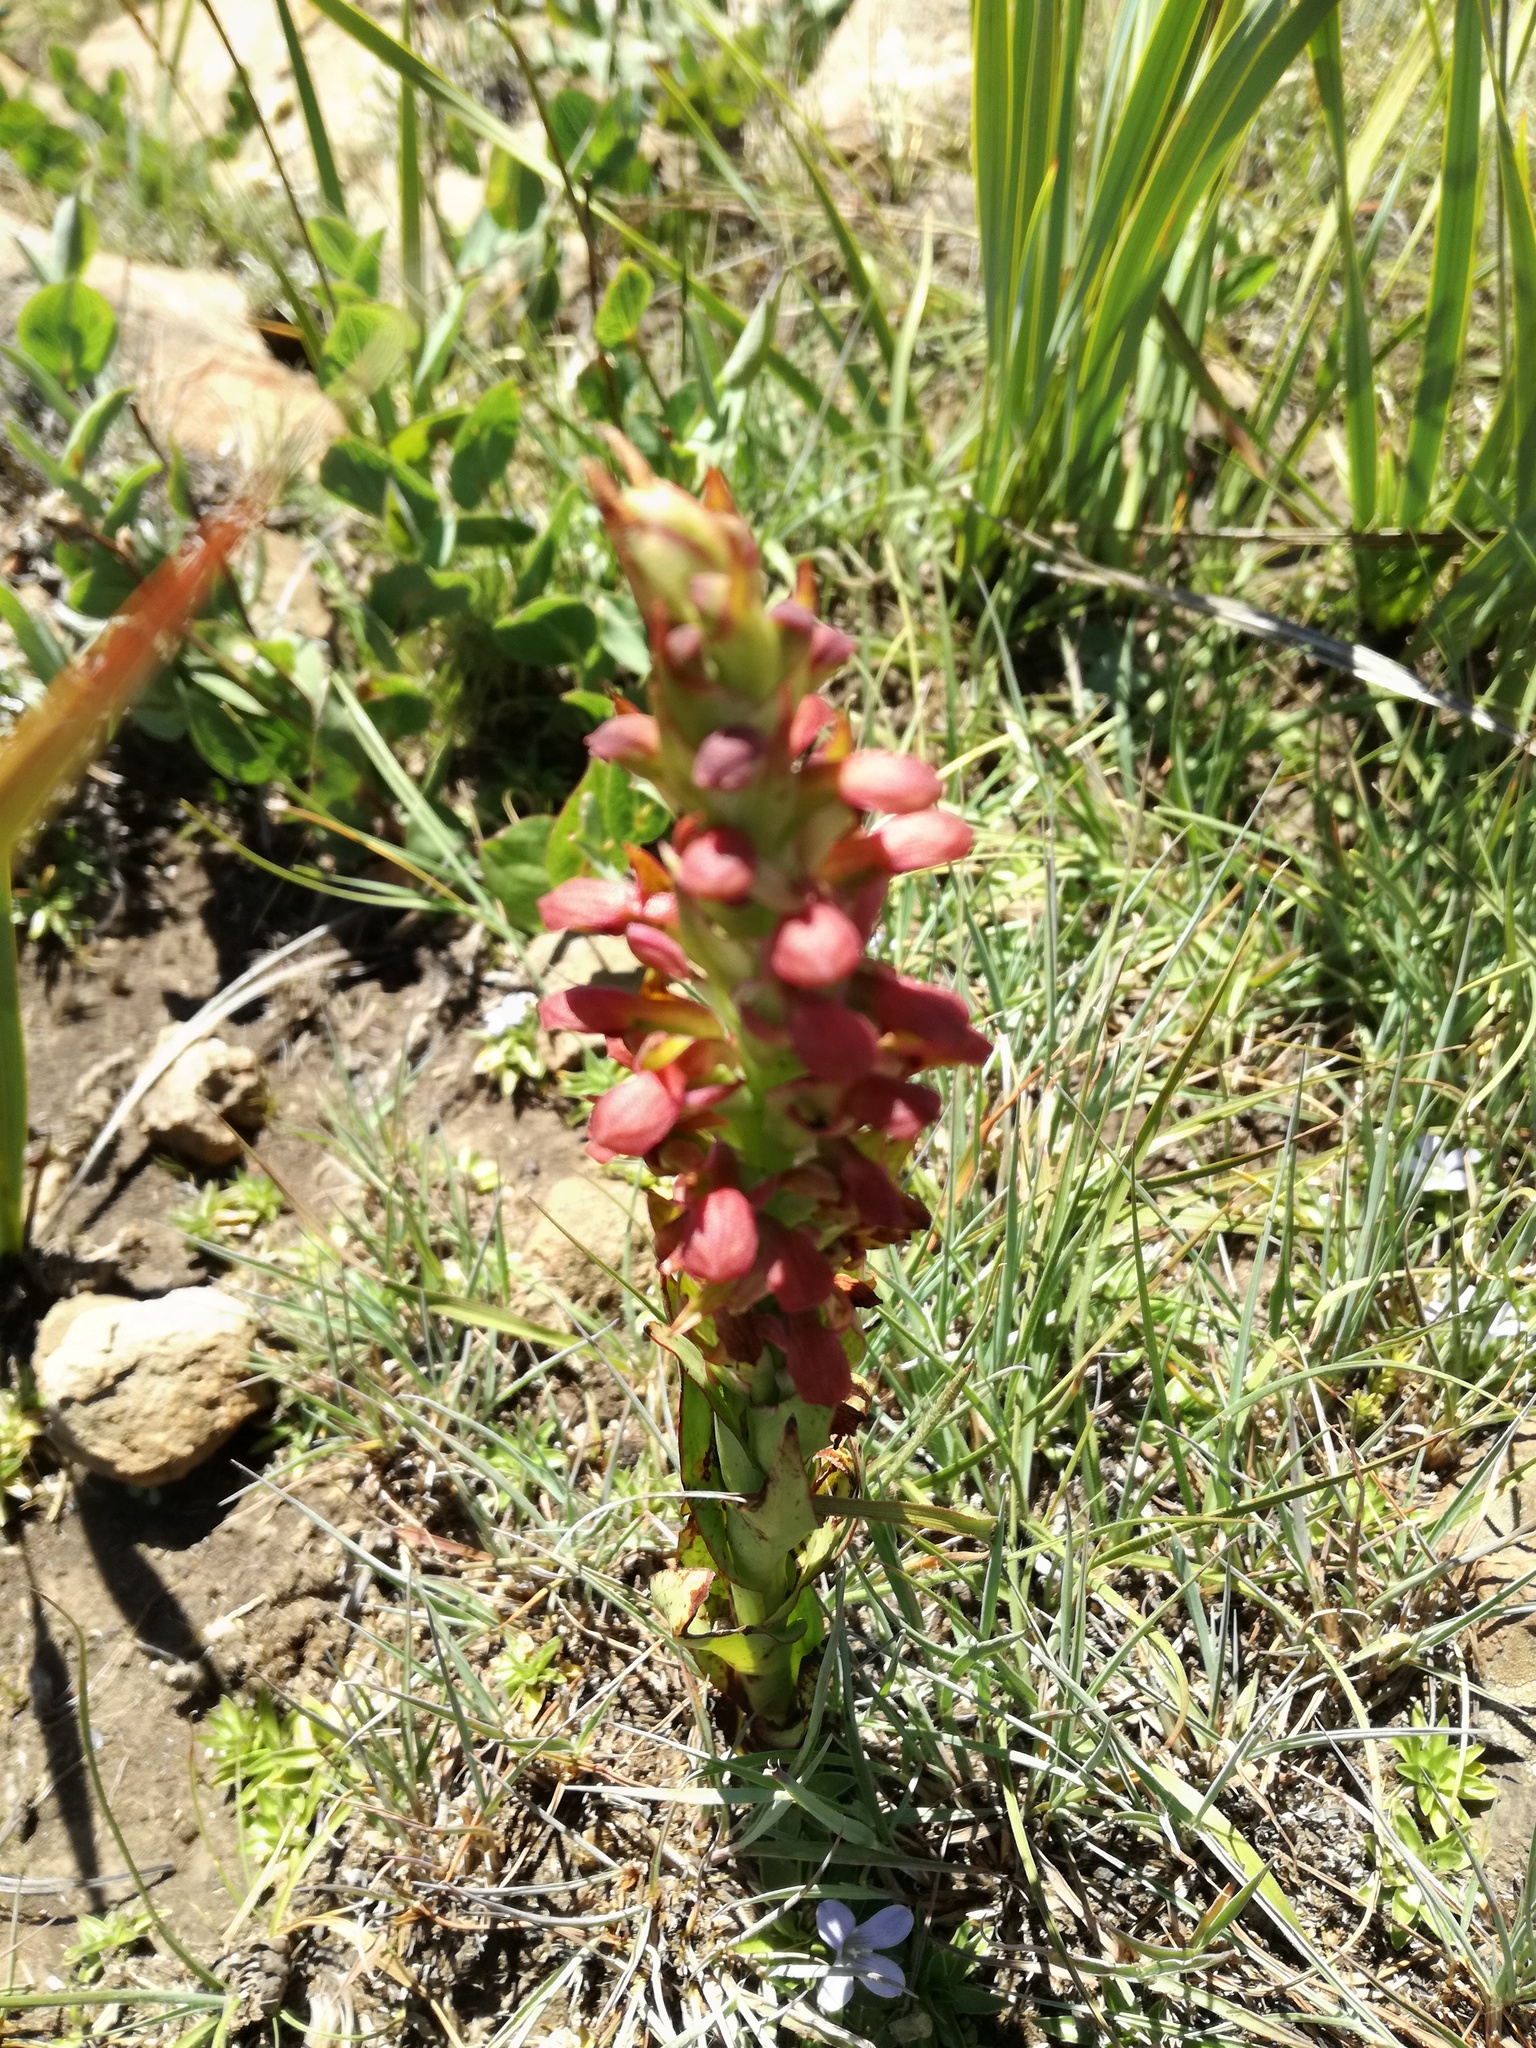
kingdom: Plantae
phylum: Tracheophyta
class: Liliopsida
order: Asparagales
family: Orchidaceae
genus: Disa
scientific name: Disa brevicornis
